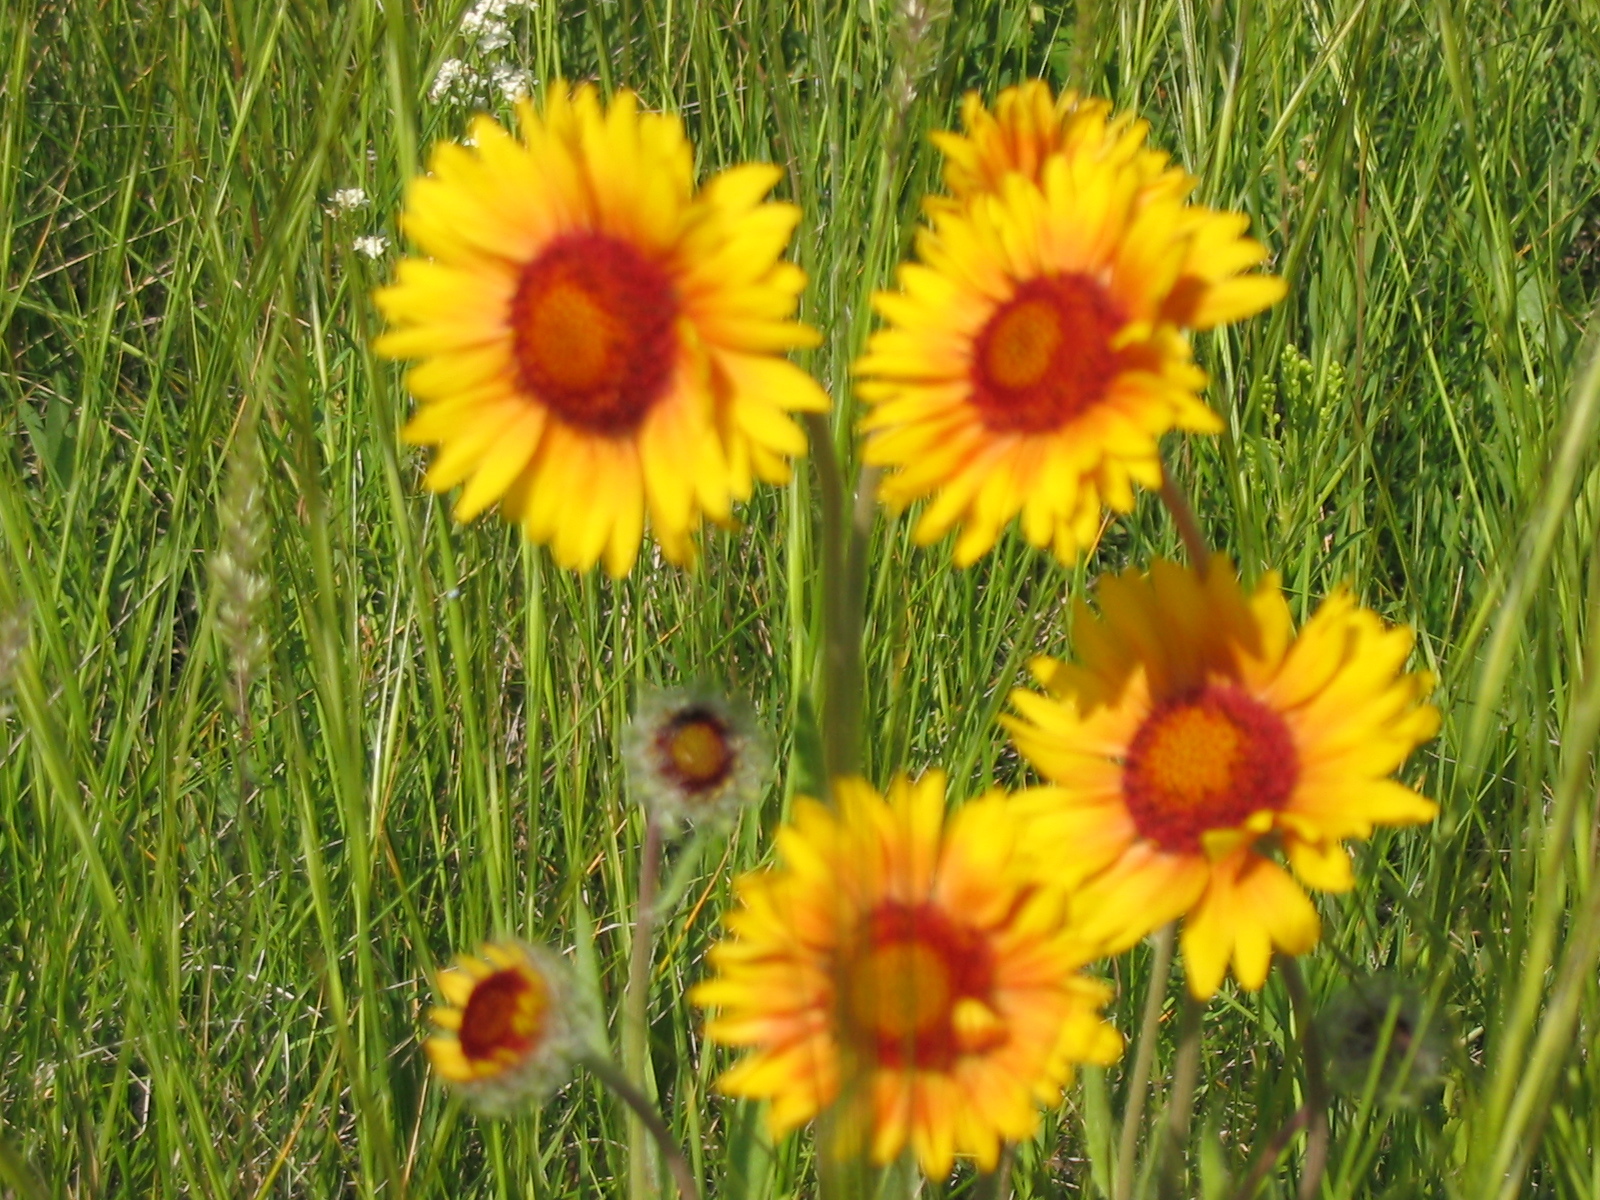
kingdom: Plantae
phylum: Tracheophyta
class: Magnoliopsida
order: Asterales
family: Asteraceae
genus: Gaillardia
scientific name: Gaillardia aristata
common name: Blanket-flower
